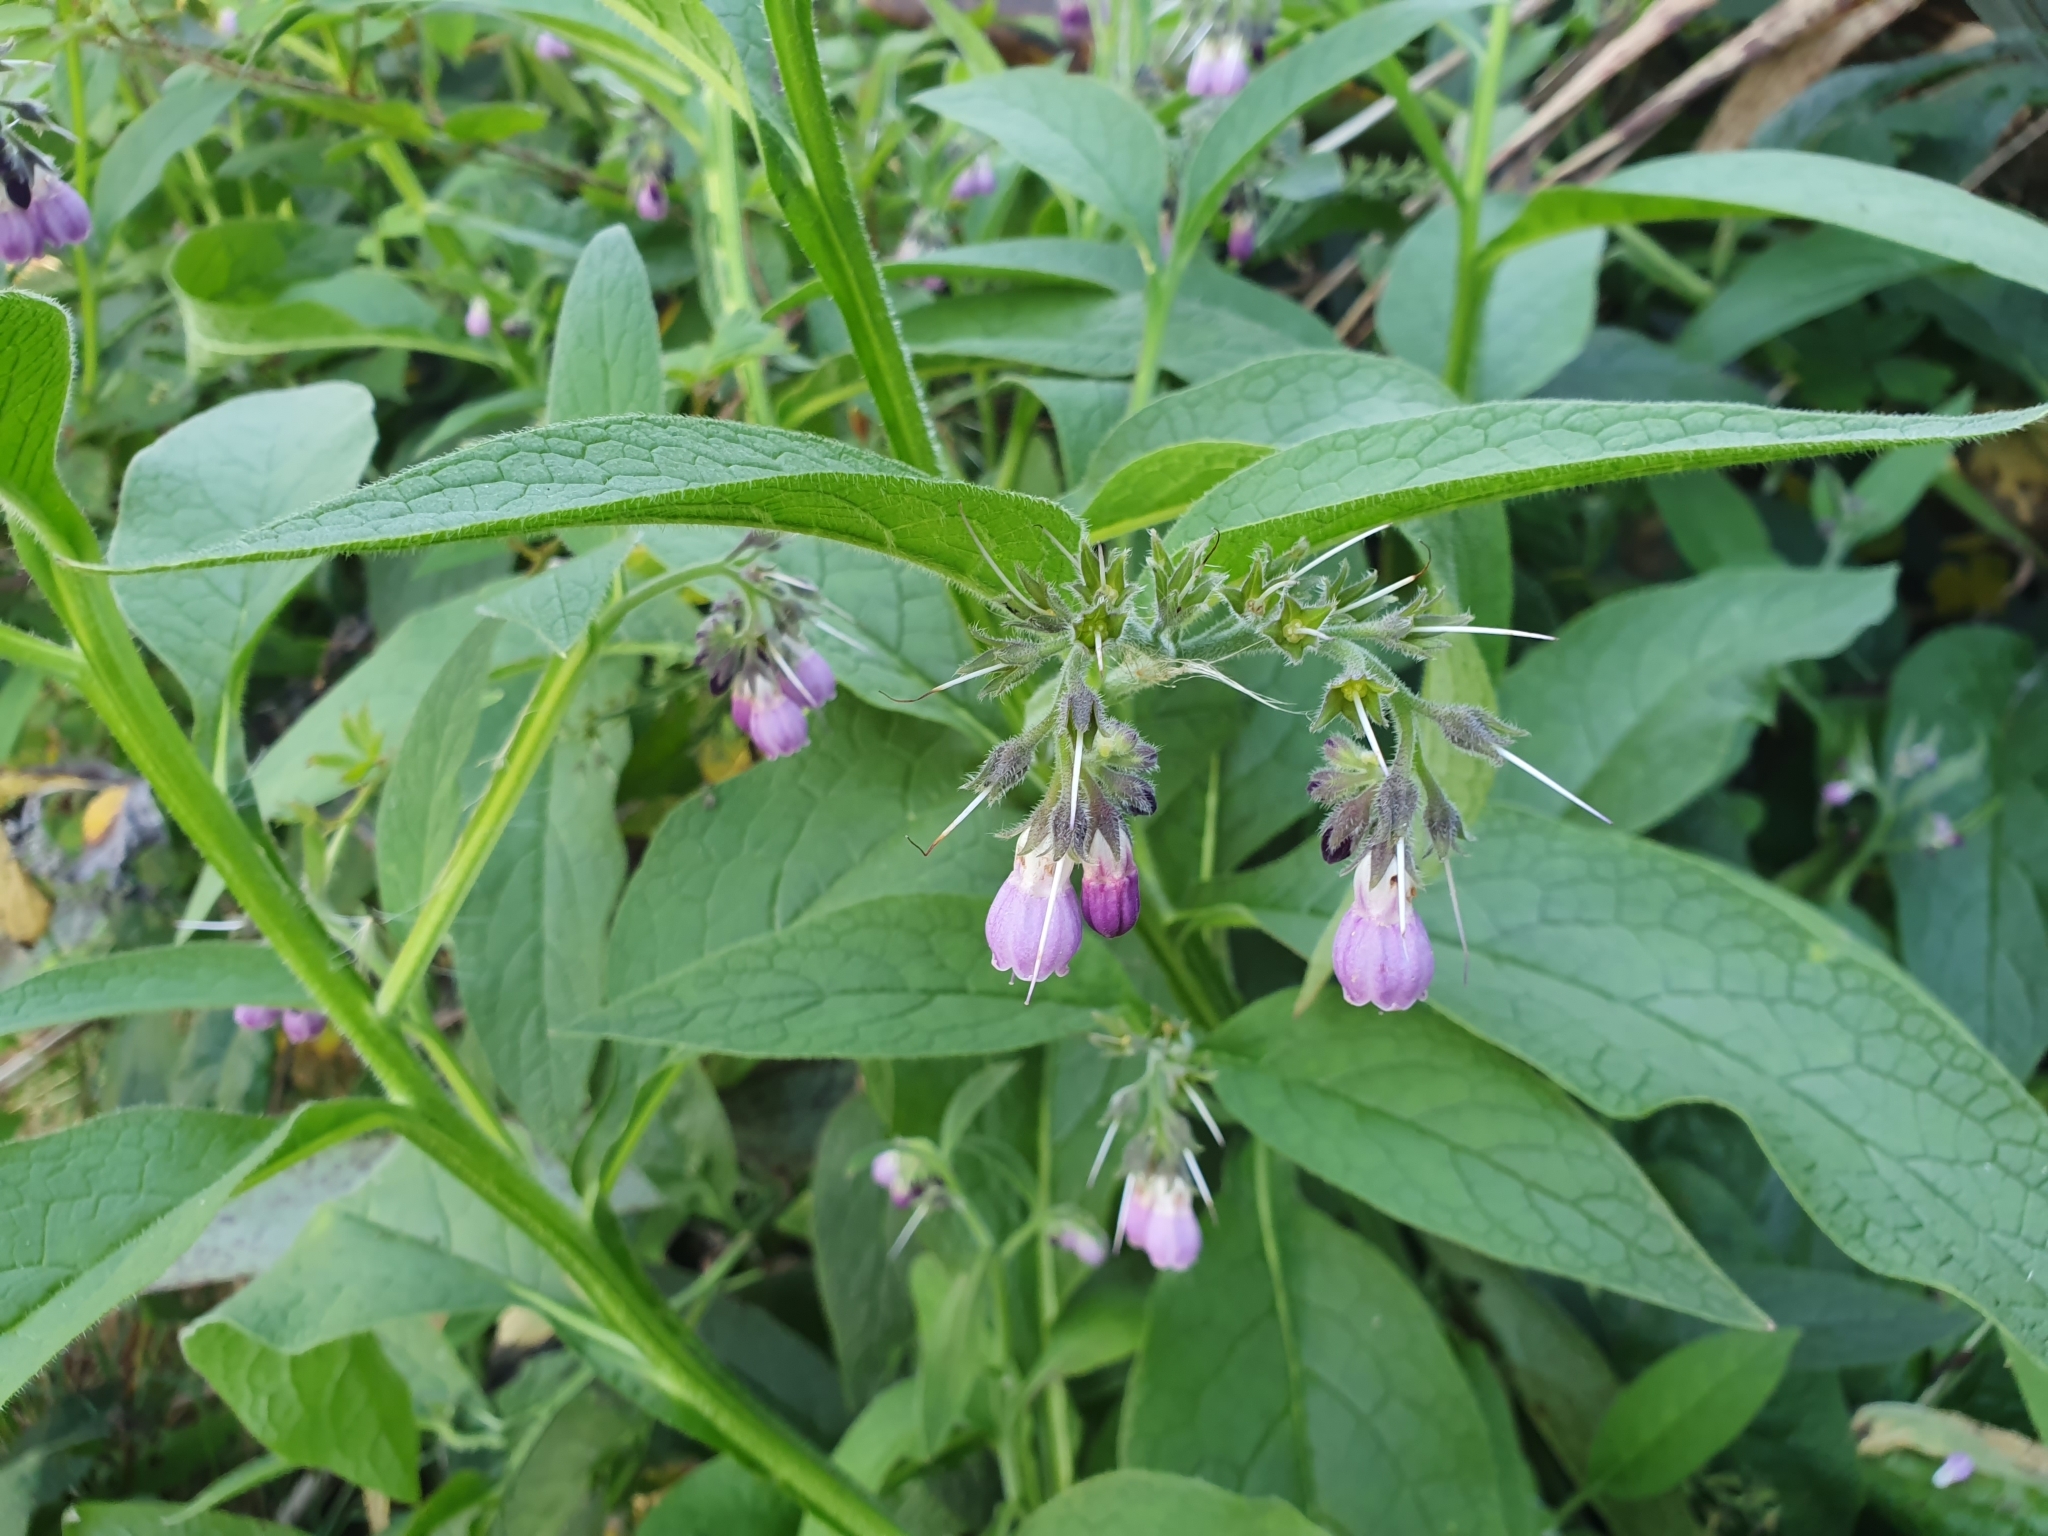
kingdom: Plantae
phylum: Tracheophyta
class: Magnoliopsida
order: Boraginales
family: Boraginaceae
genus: Symphytum
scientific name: Symphytum uplandicum
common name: Russian comfrey
